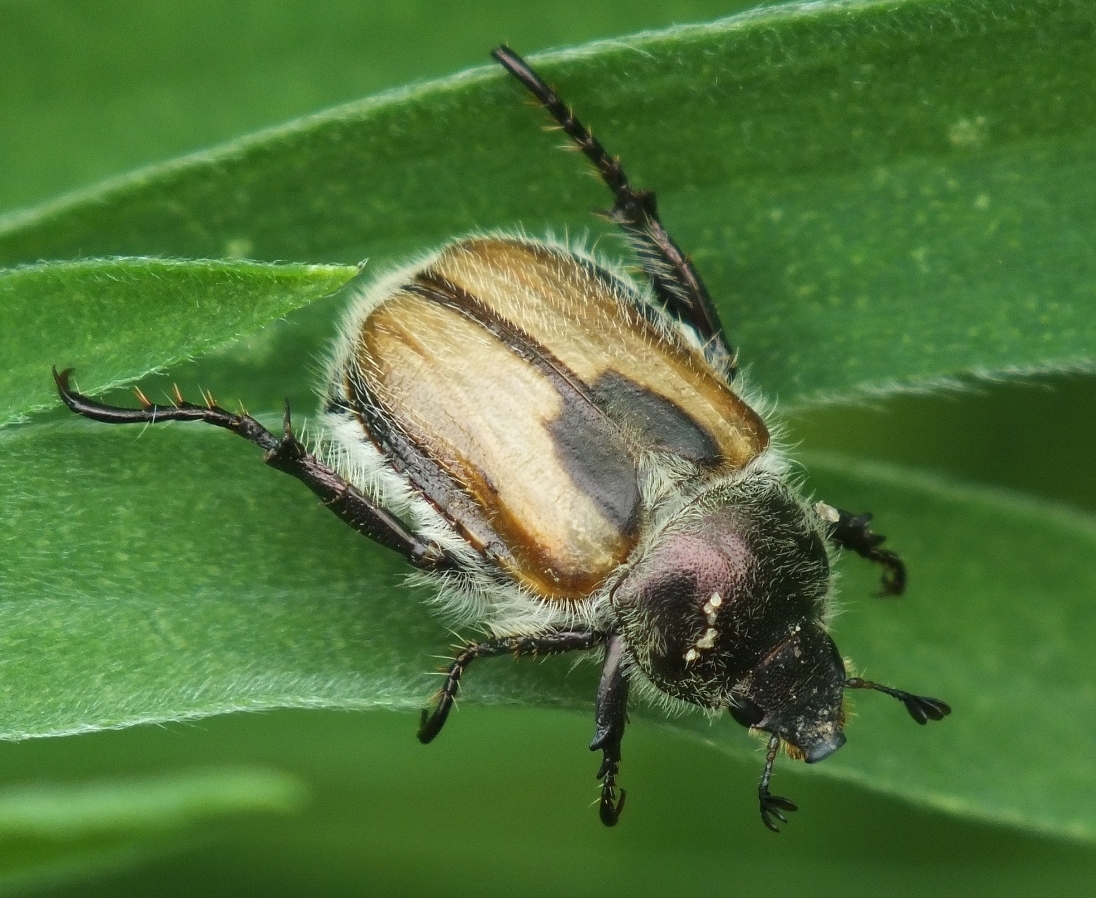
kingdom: Animalia
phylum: Arthropoda
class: Insecta
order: Coleoptera
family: Scarabaeidae
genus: Chaetopteroplia
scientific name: Chaetopteroplia segetum
